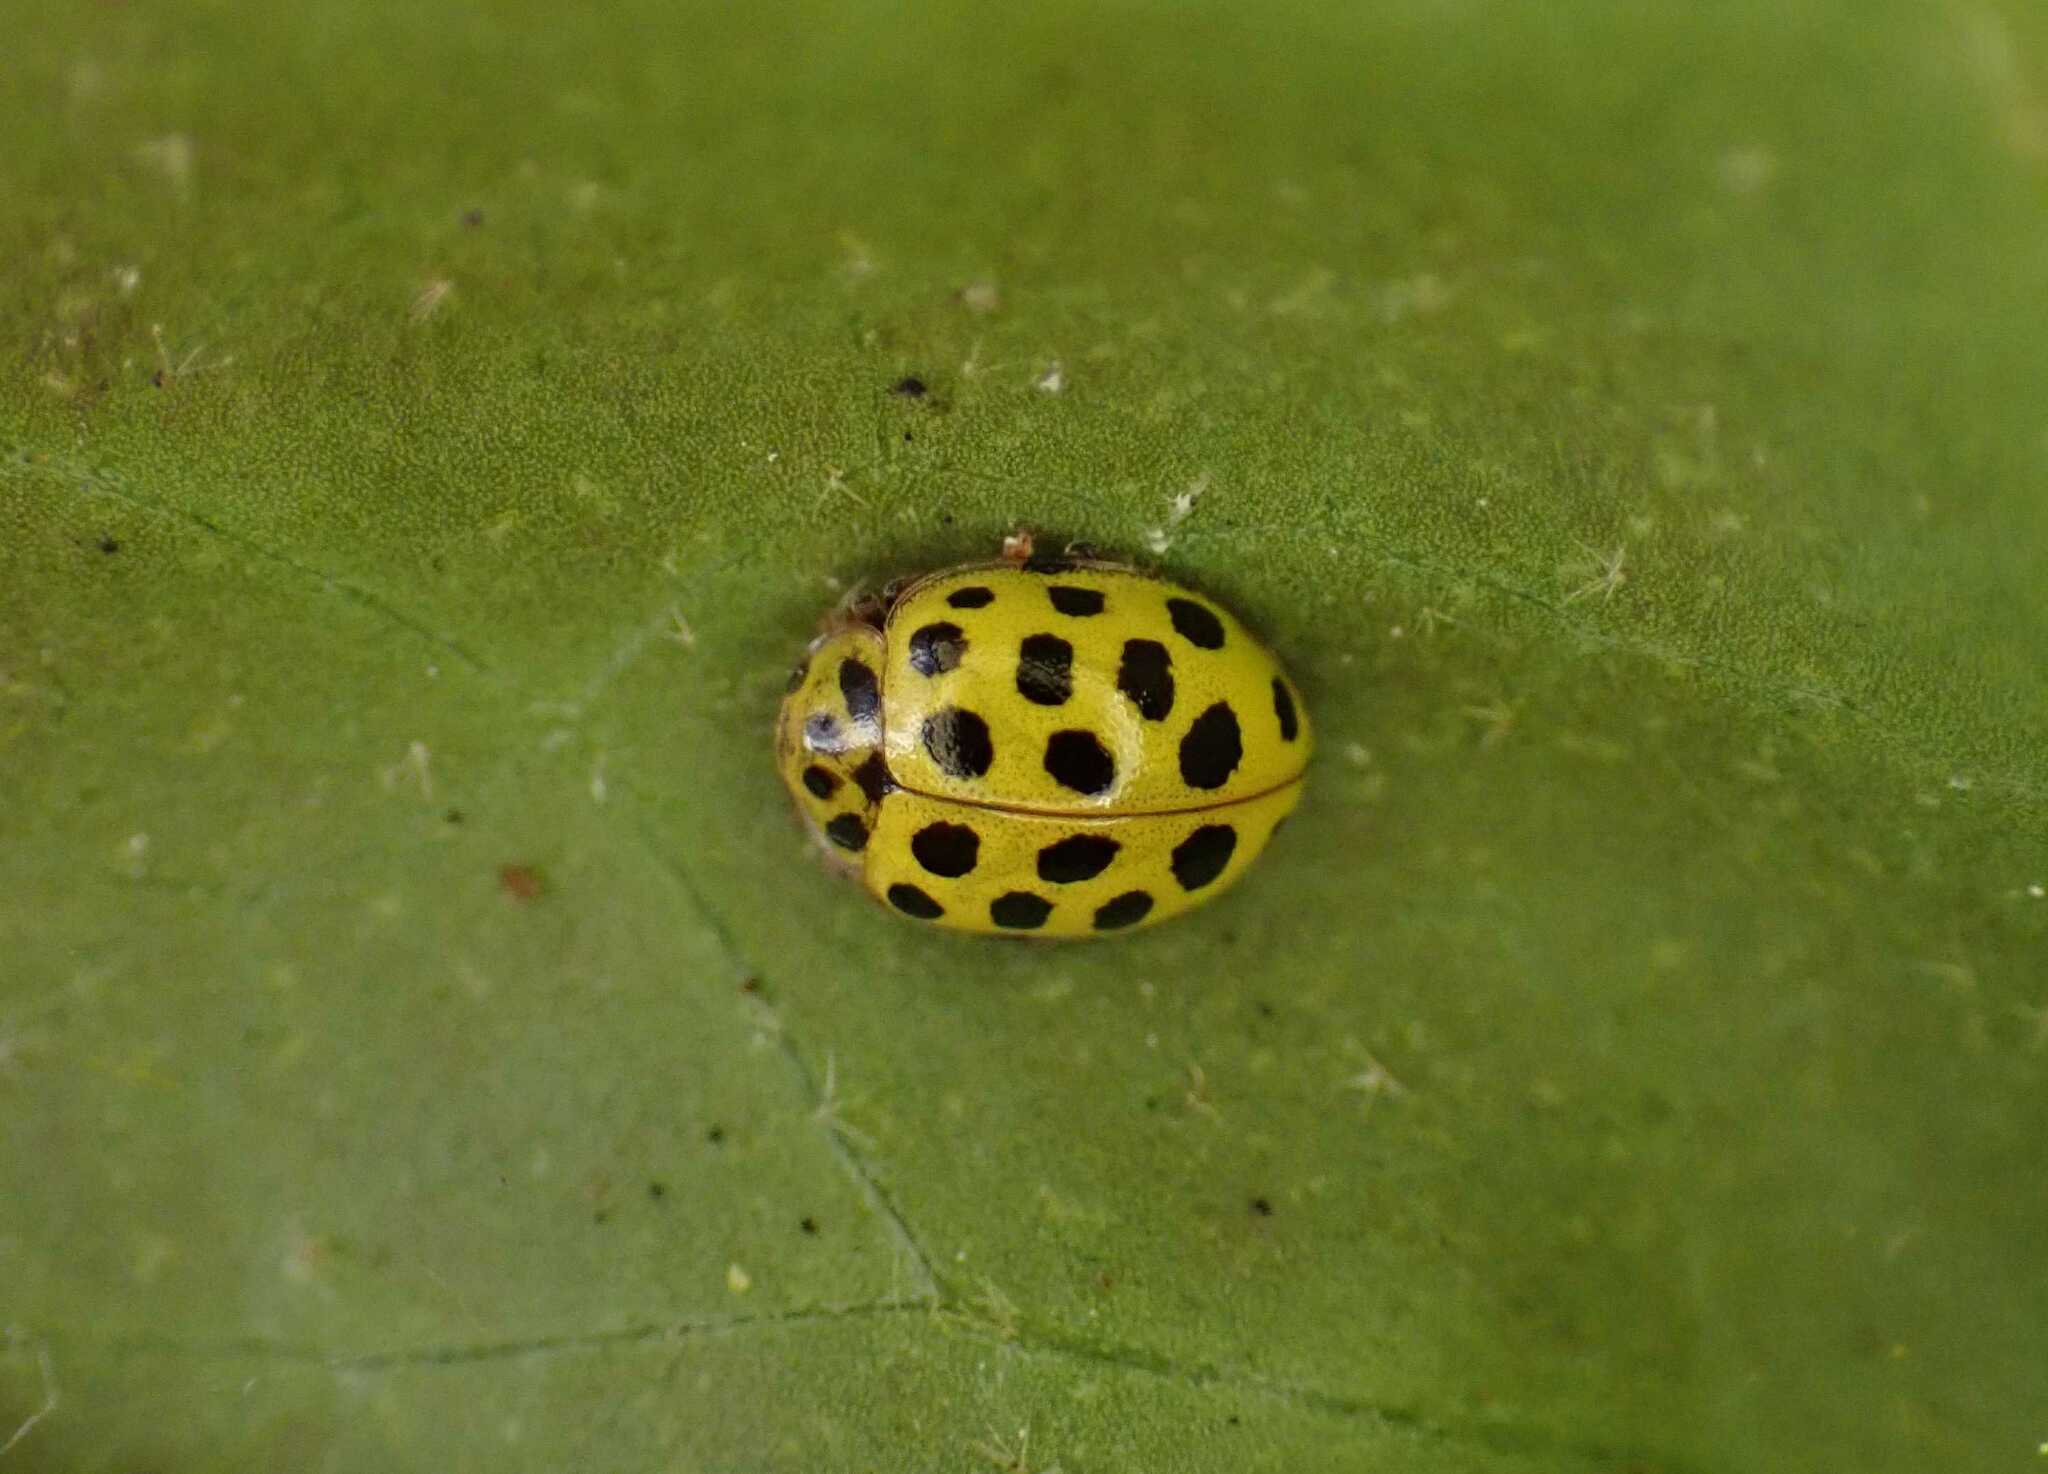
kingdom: Animalia
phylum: Arthropoda
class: Insecta
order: Coleoptera
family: Coccinellidae
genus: Psyllobora
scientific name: Psyllobora vigintiduopunctata
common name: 22-spot ladybird
